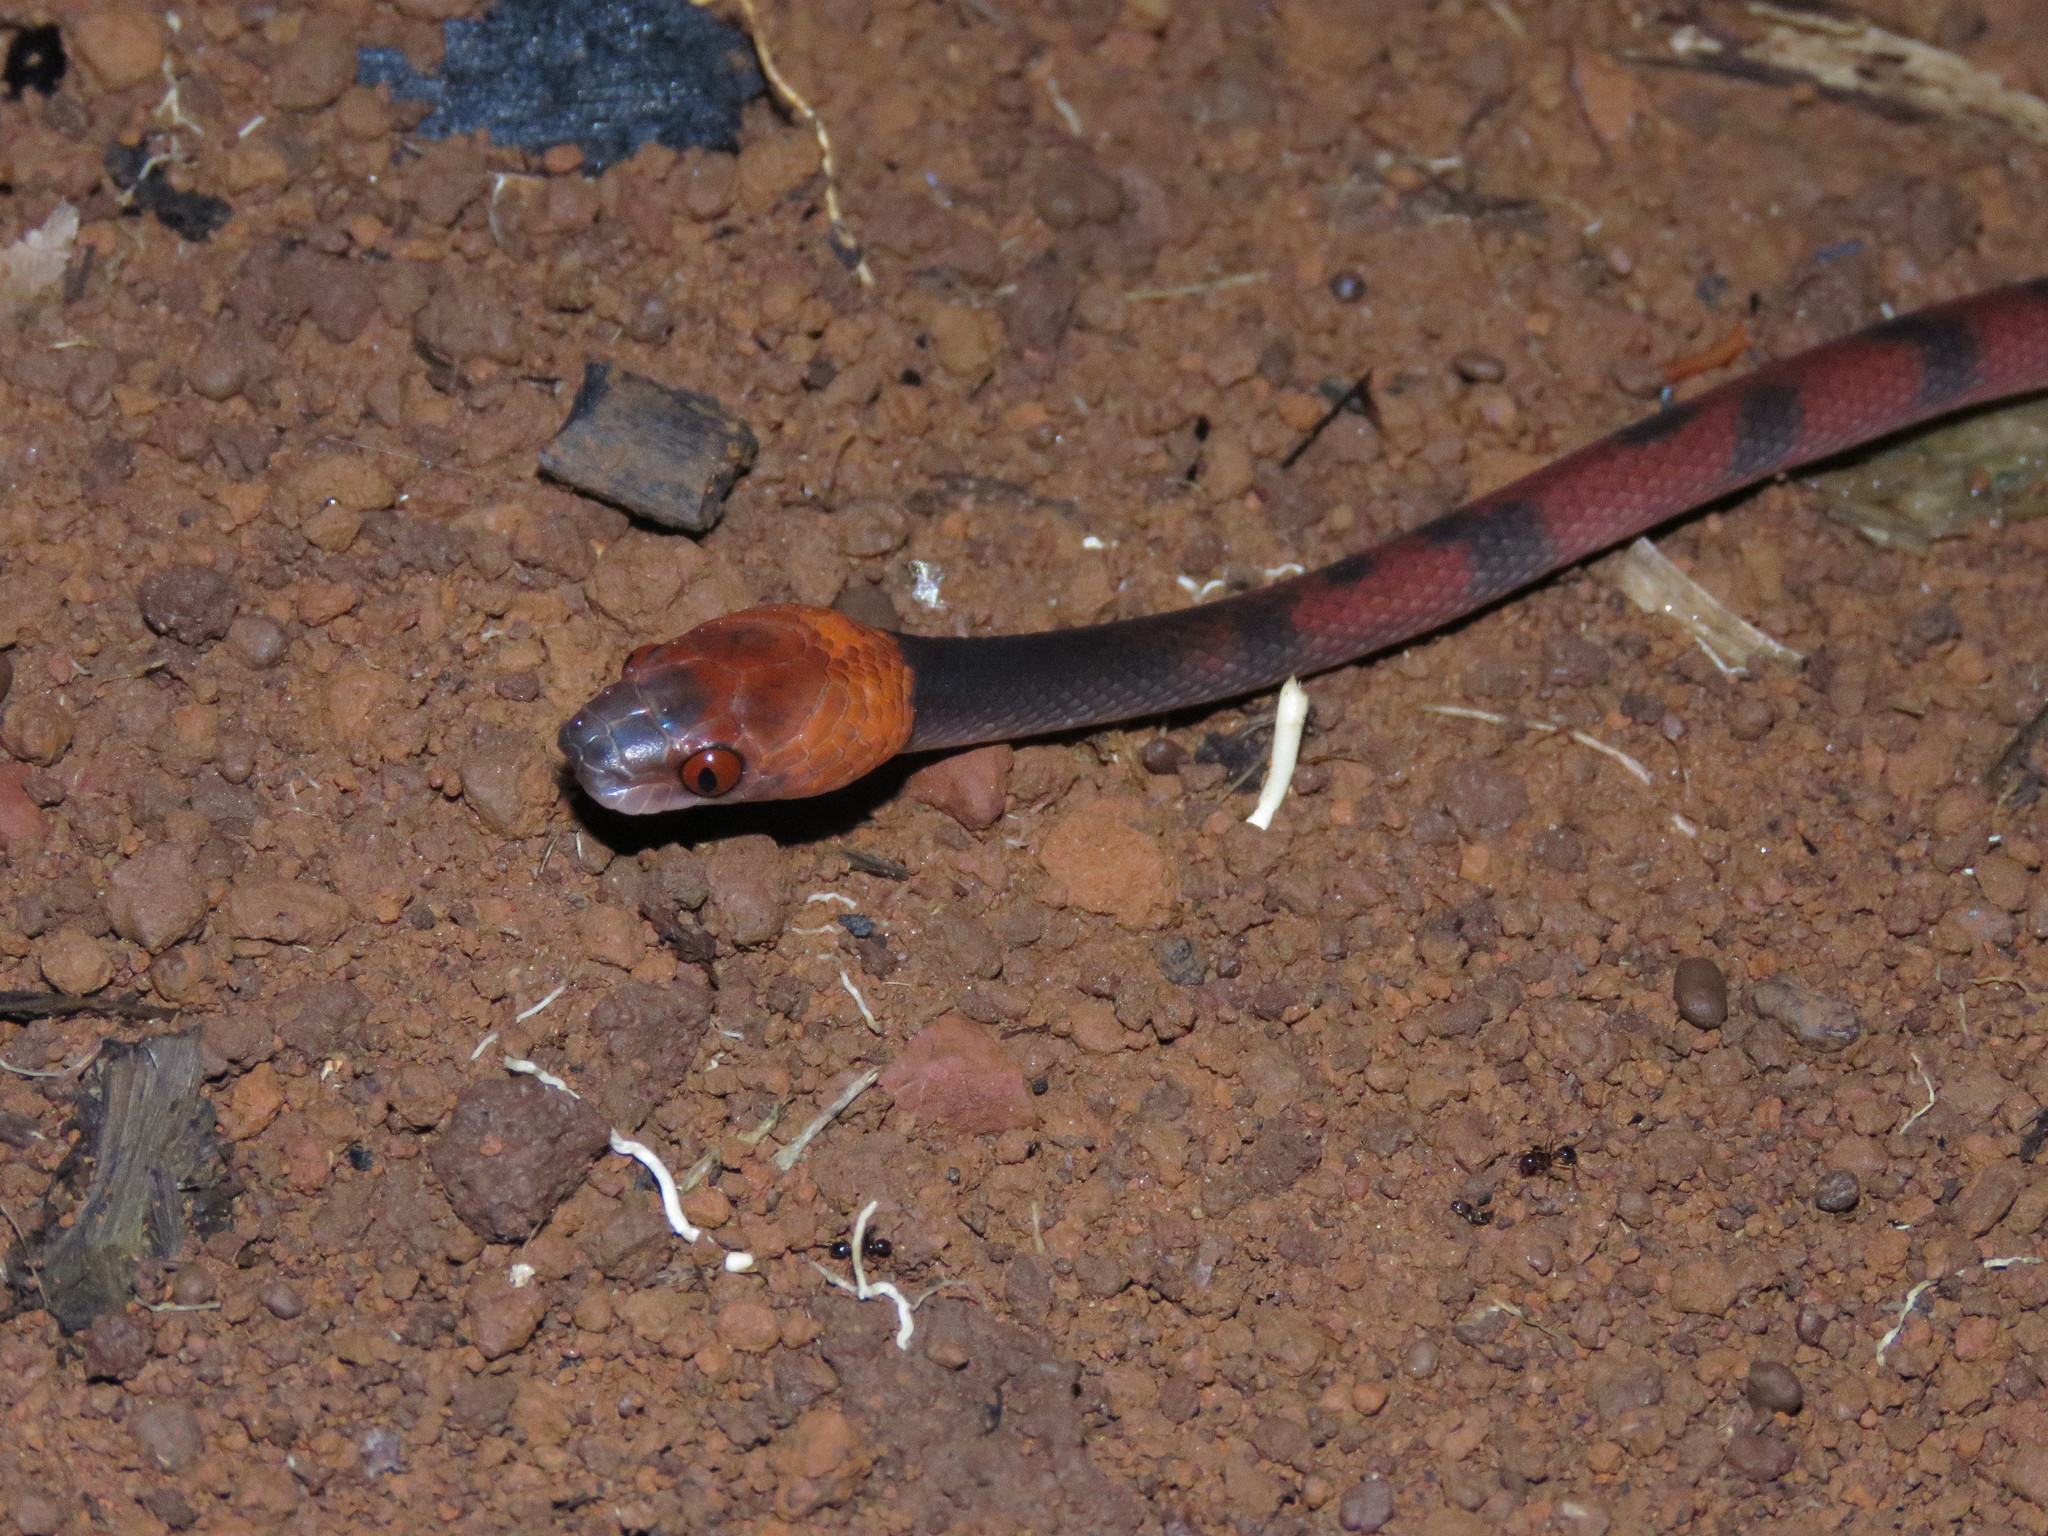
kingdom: Animalia
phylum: Chordata
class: Squamata
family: Colubridae
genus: Siphlophis
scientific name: Siphlophis compressus
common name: Tropical flat snake
